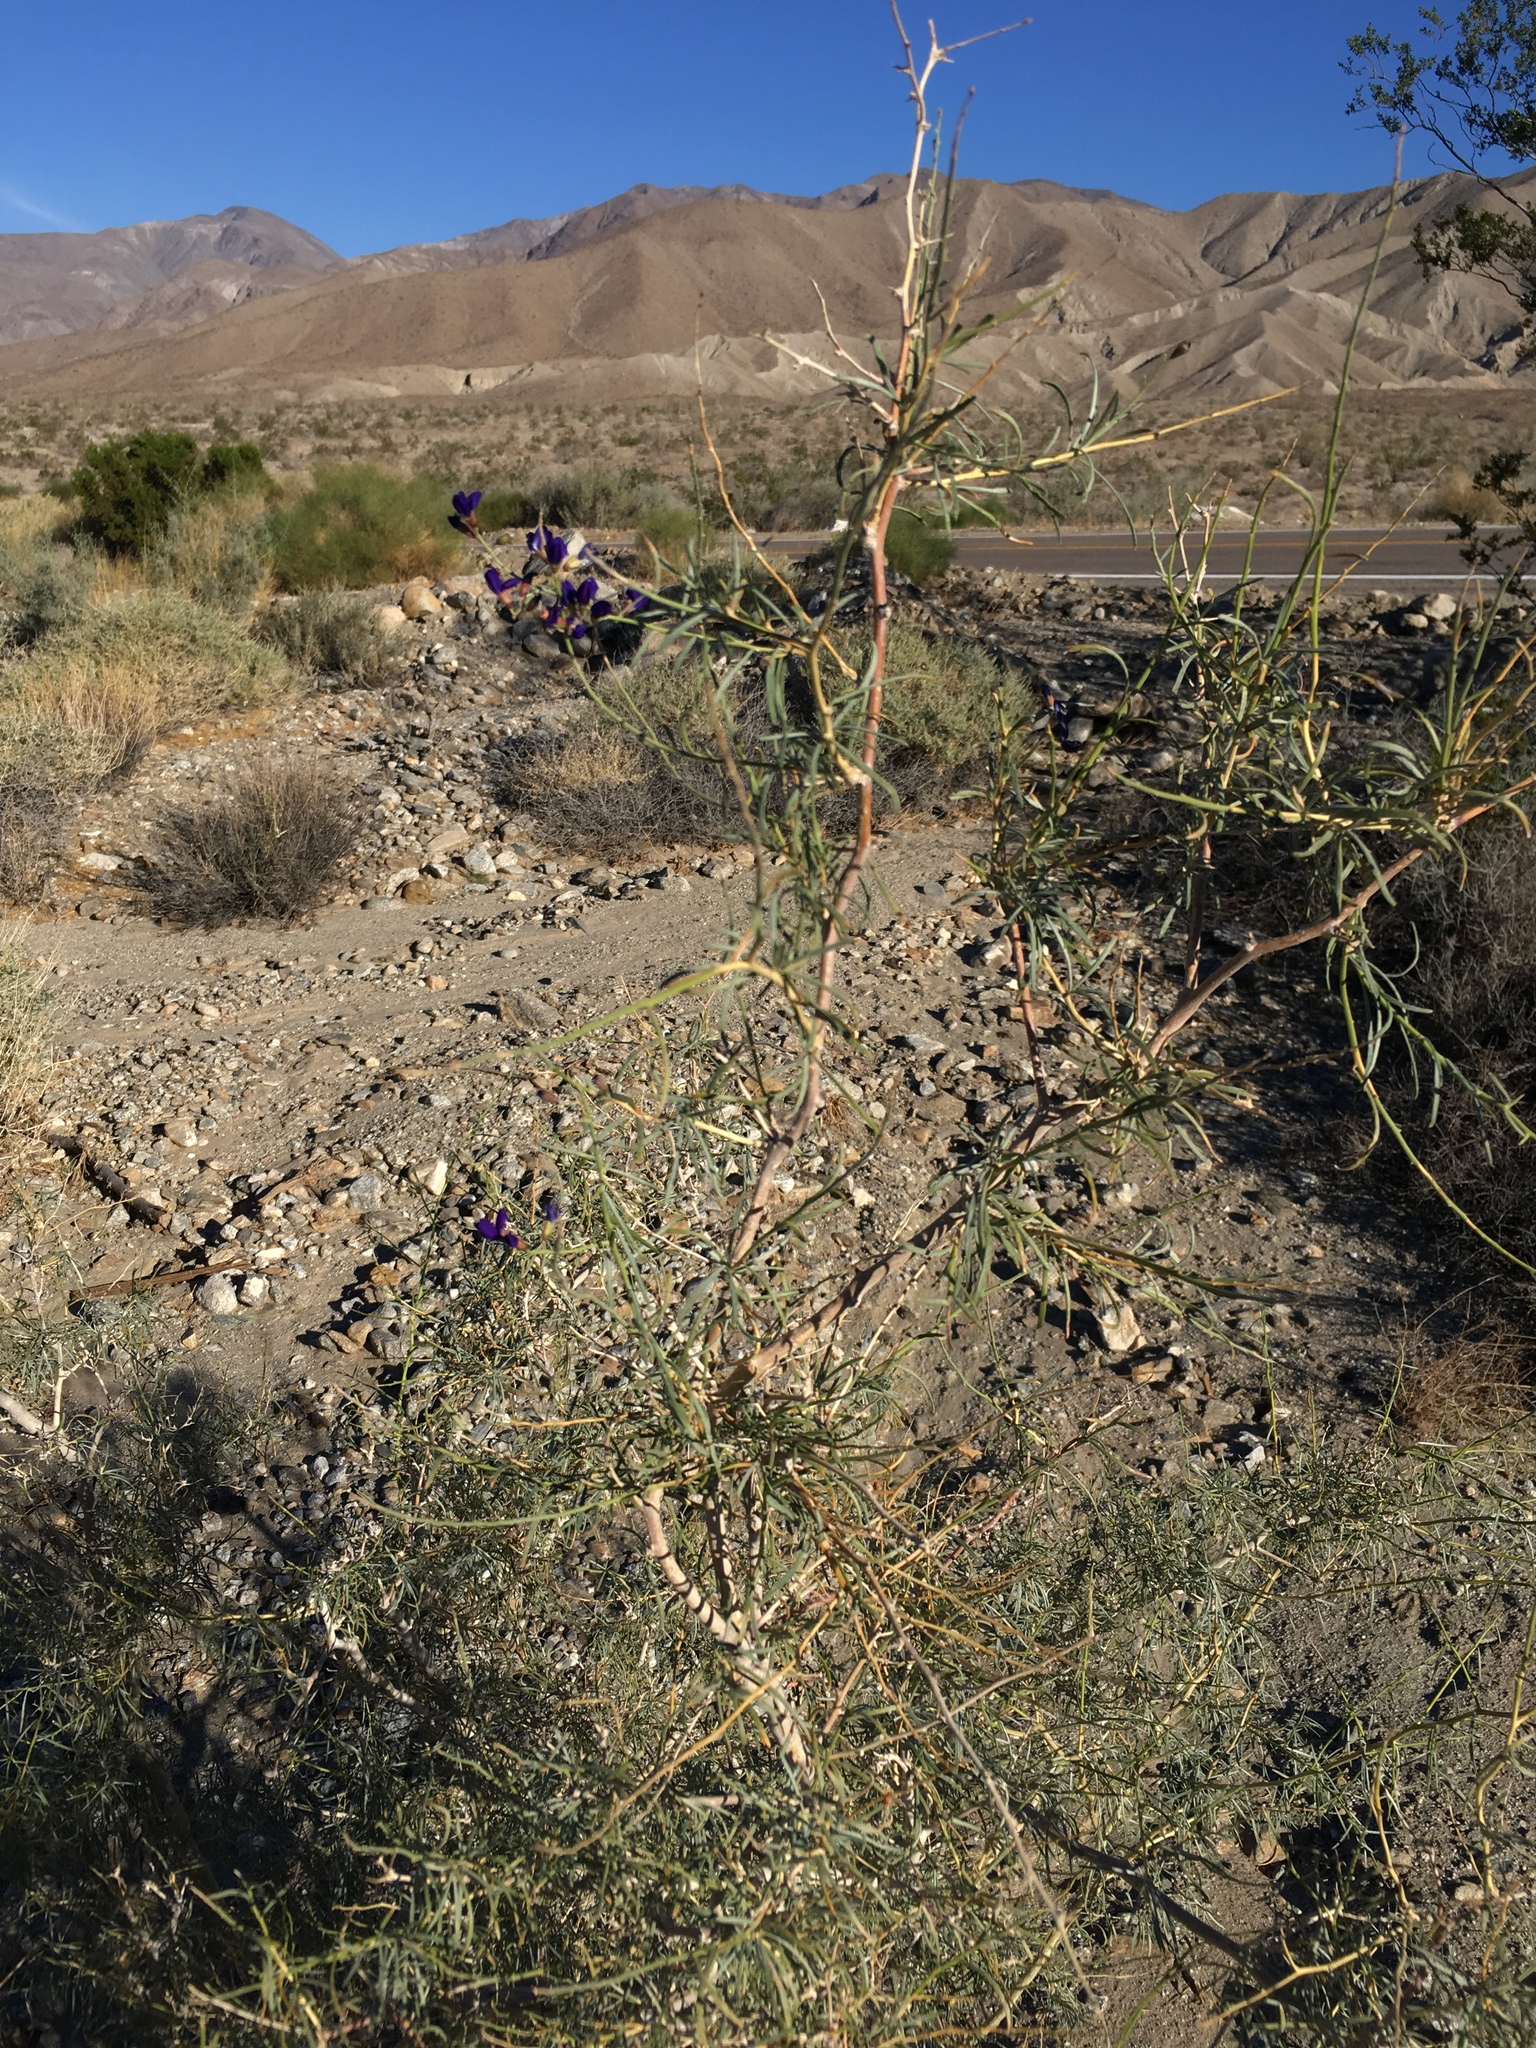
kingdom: Plantae
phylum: Tracheophyta
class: Magnoliopsida
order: Fabales
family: Fabaceae
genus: Psorothamnus
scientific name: Psorothamnus schottii
